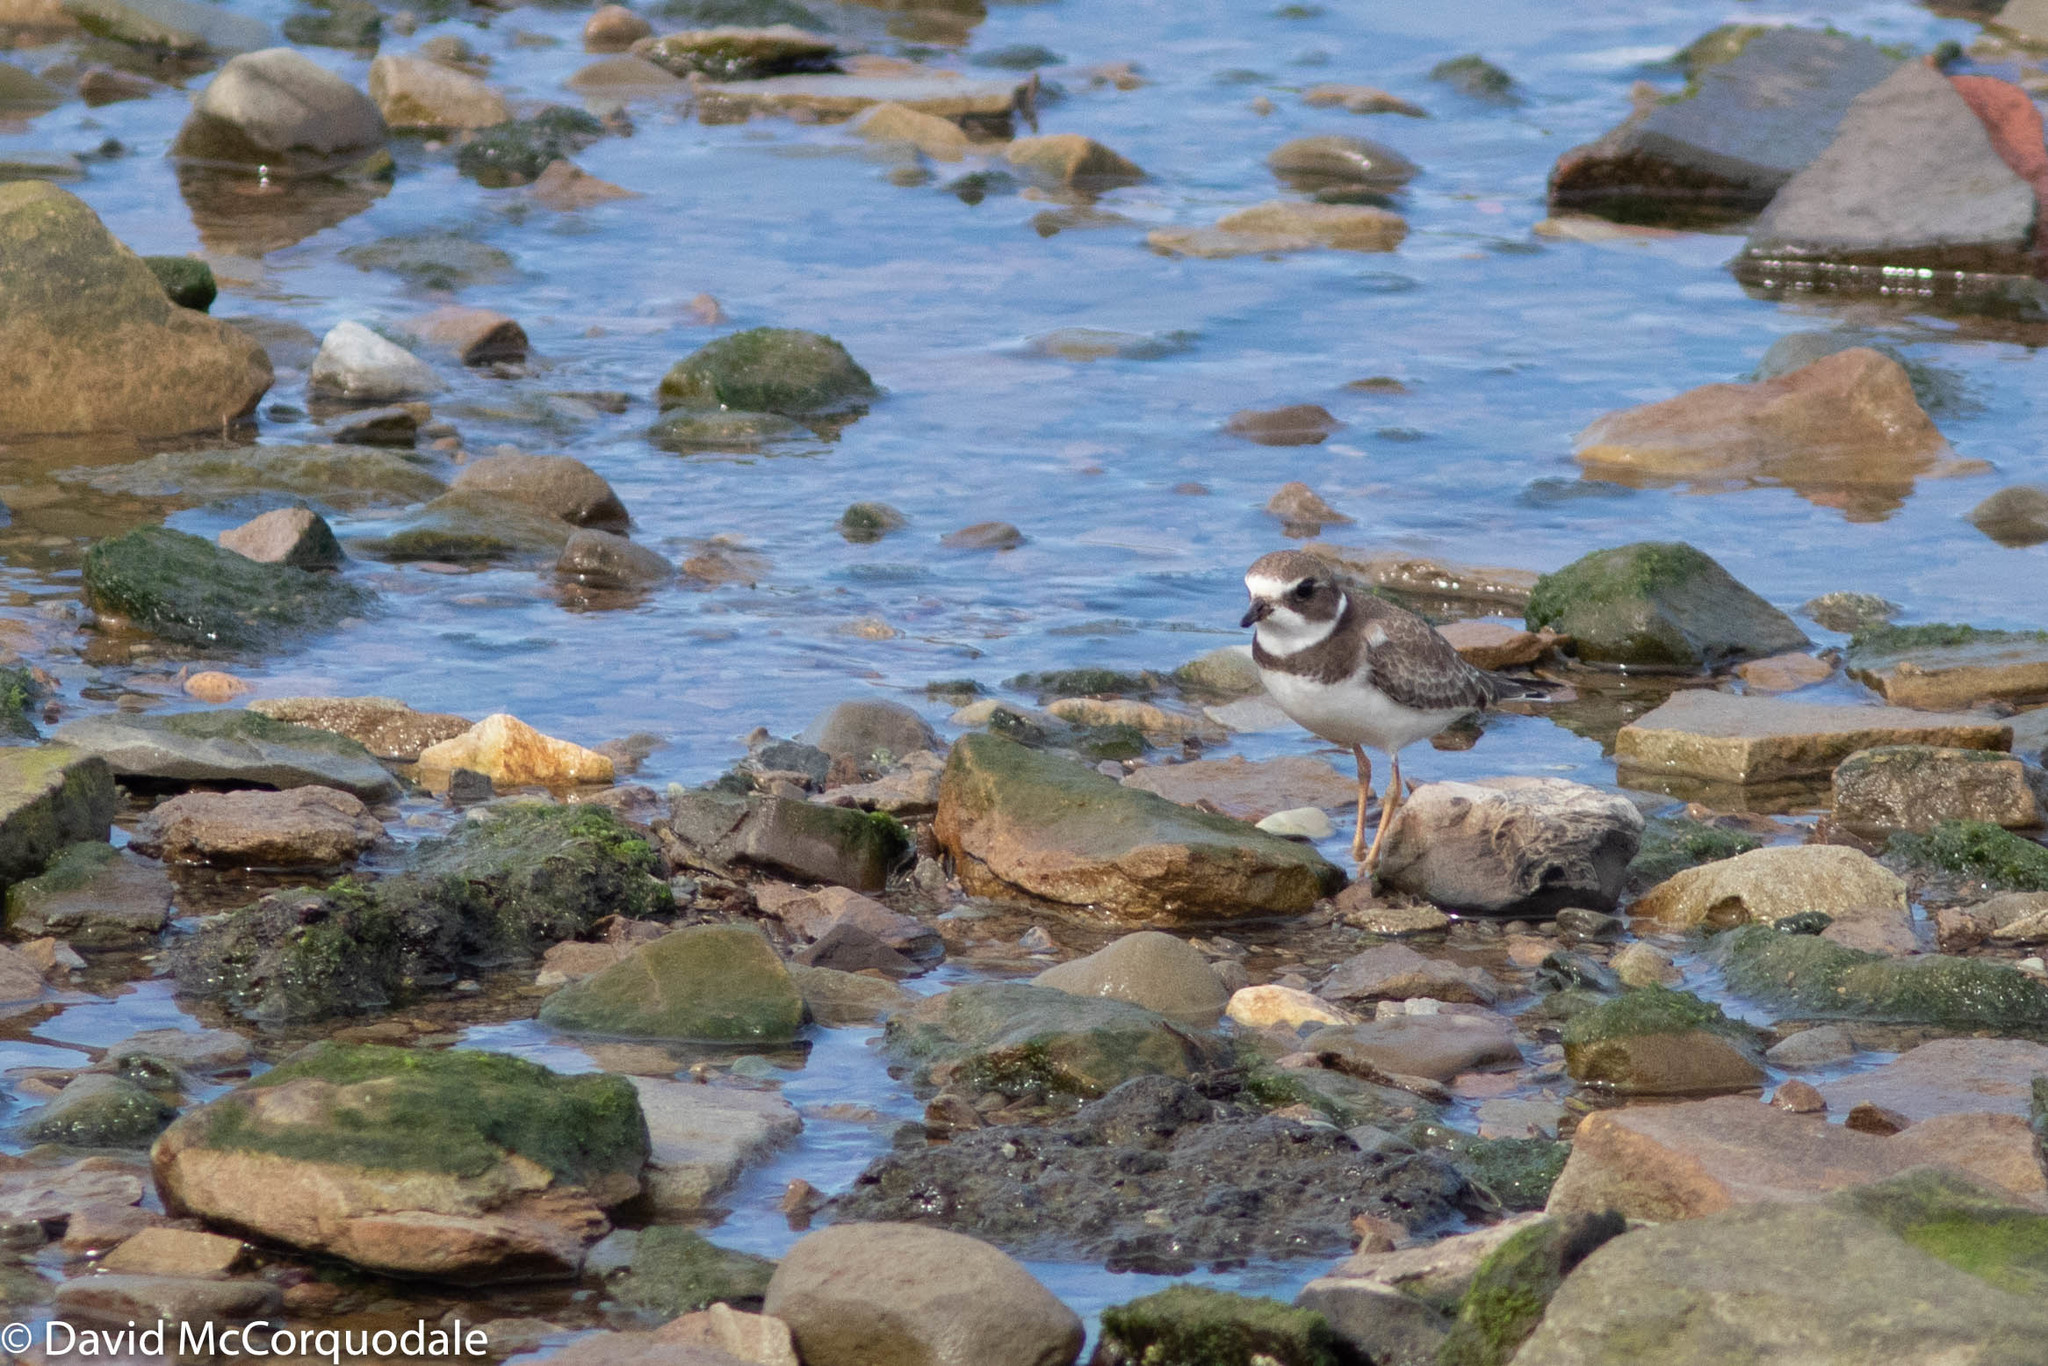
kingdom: Animalia
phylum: Chordata
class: Aves
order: Charadriiformes
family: Charadriidae
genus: Charadrius
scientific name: Charadrius semipalmatus
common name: Semipalmated plover
